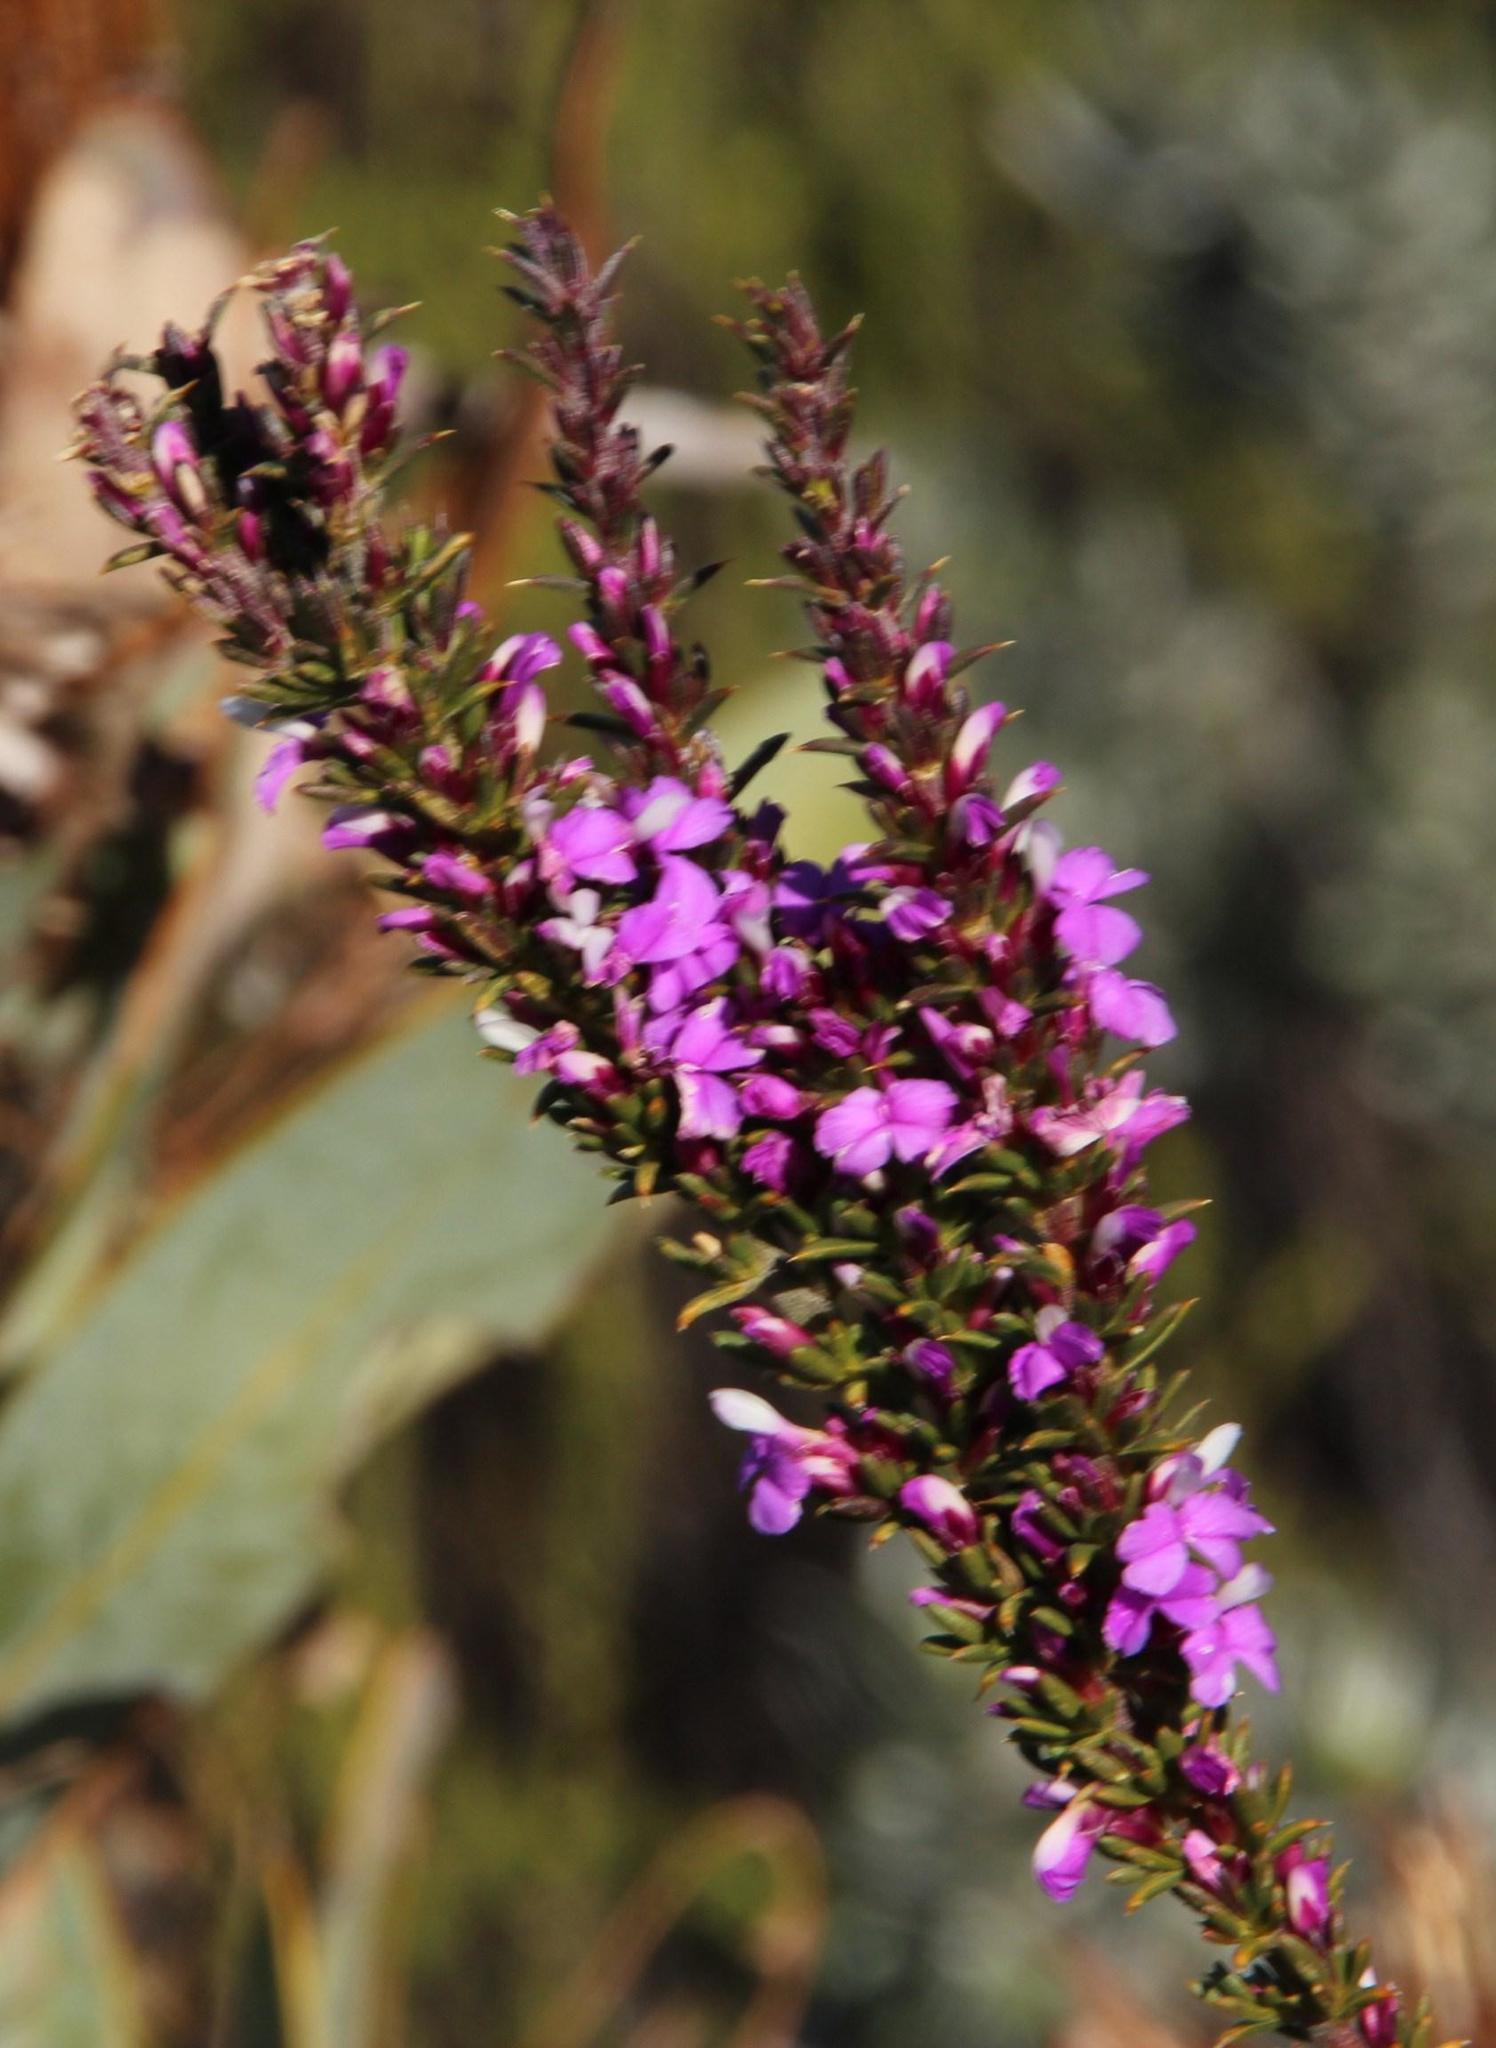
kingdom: Plantae
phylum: Tracheophyta
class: Magnoliopsida
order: Fabales
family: Polygalaceae
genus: Muraltia
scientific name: Muraltia heisteria
